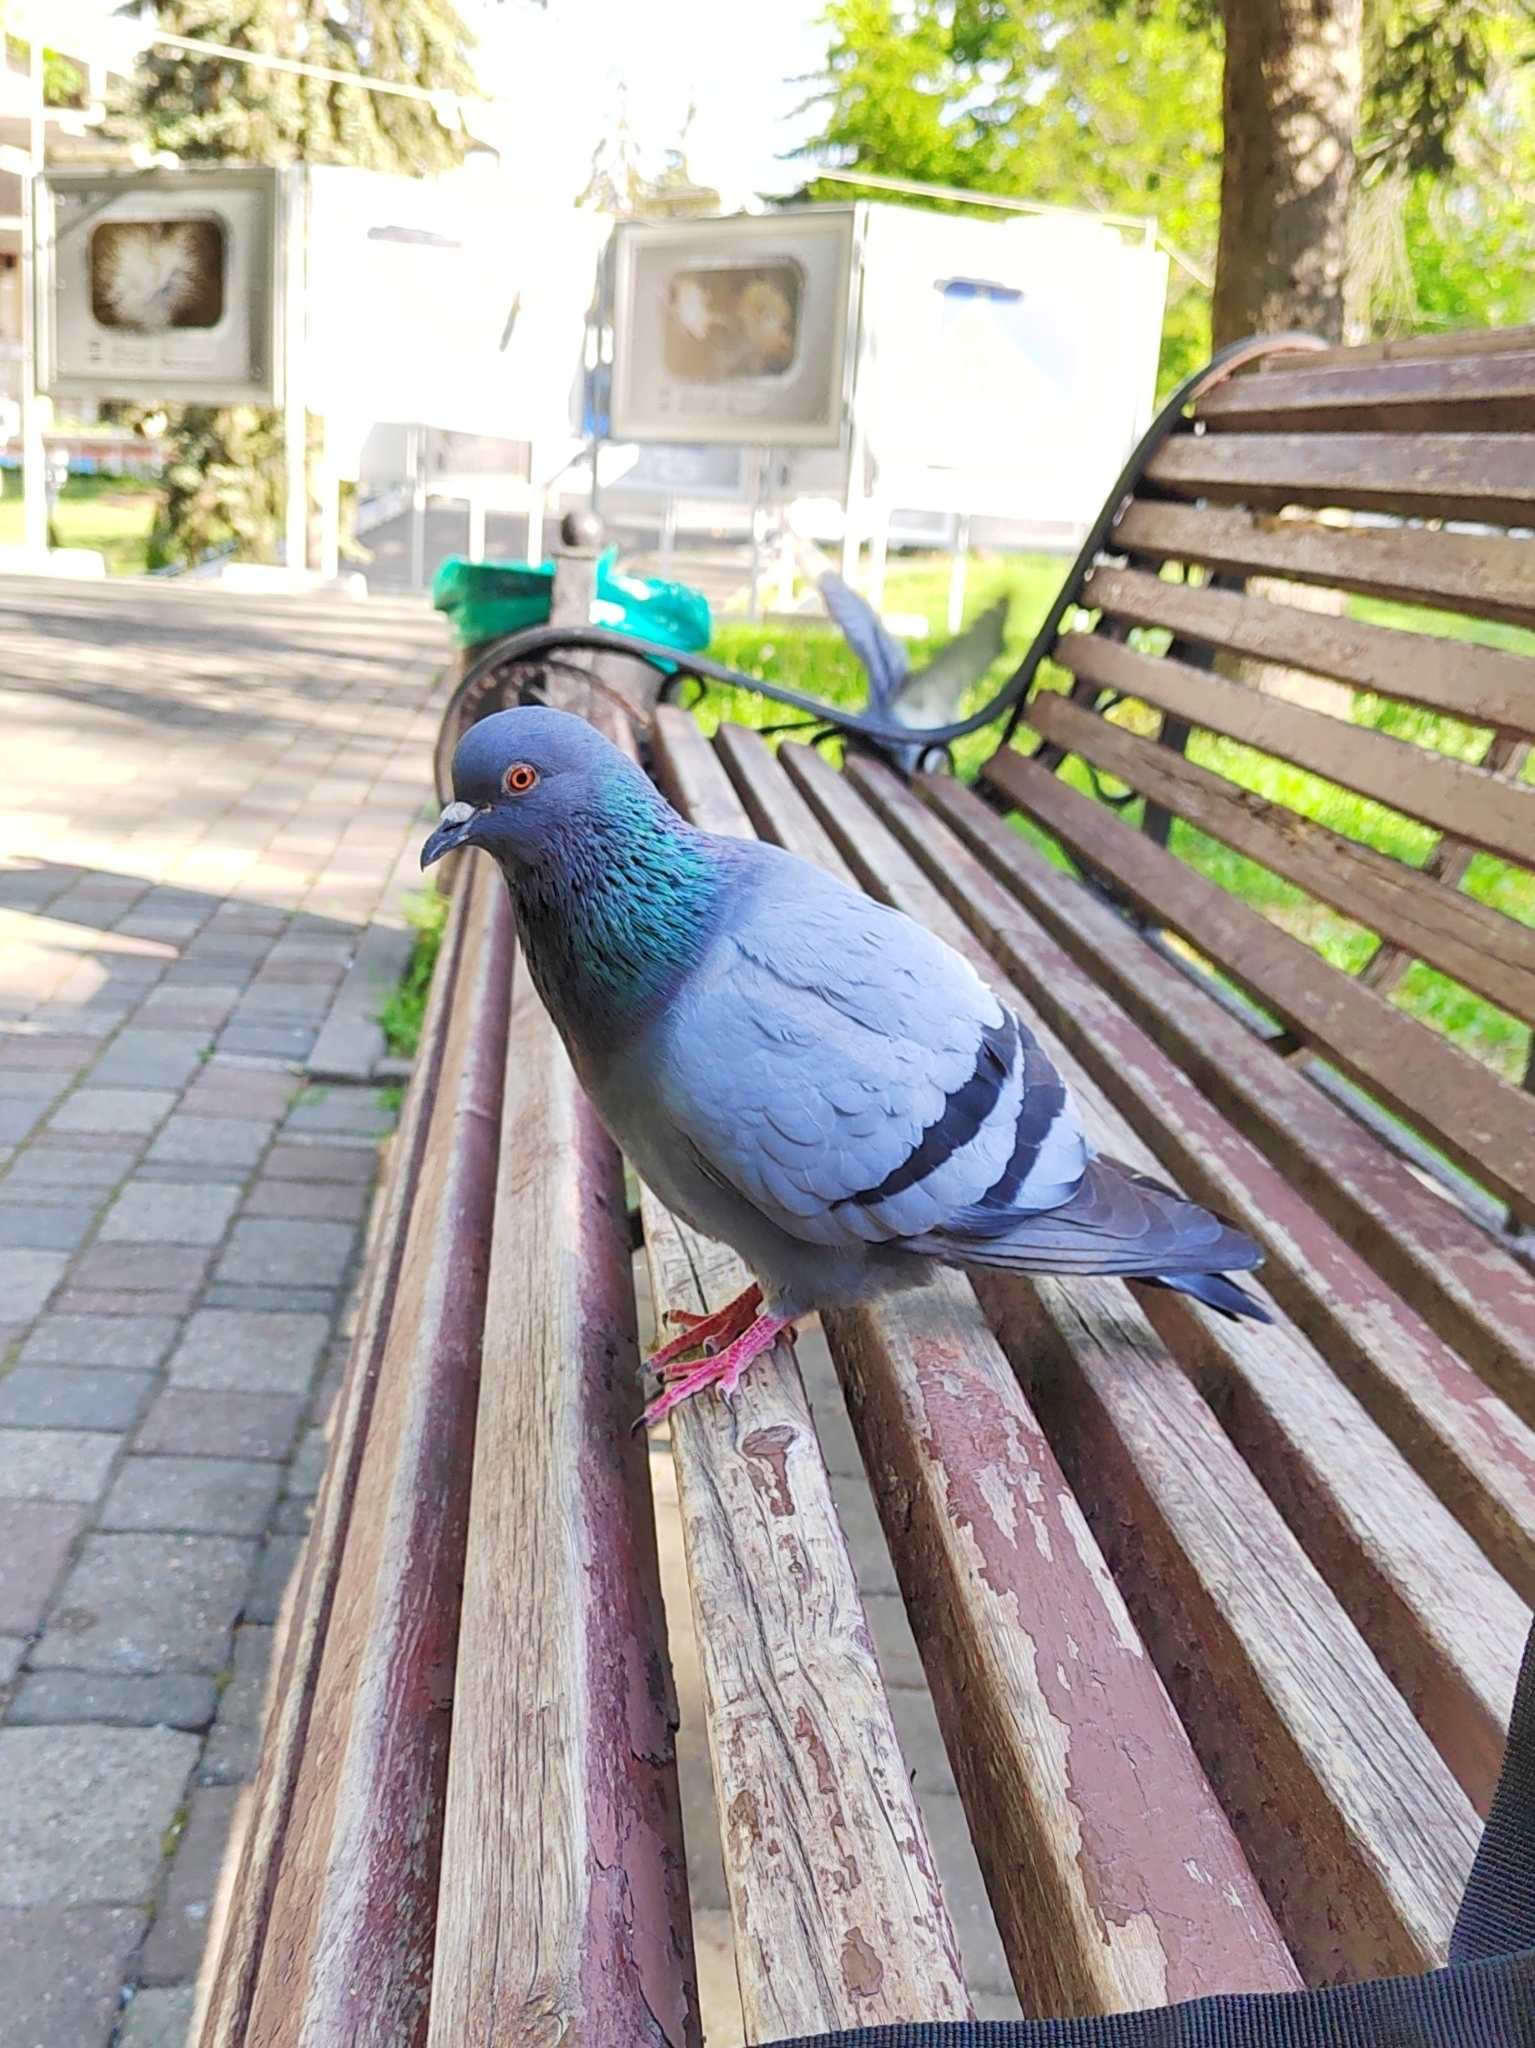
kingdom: Animalia
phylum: Chordata
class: Aves
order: Columbiformes
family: Columbidae
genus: Columba
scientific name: Columba livia
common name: Rock pigeon
